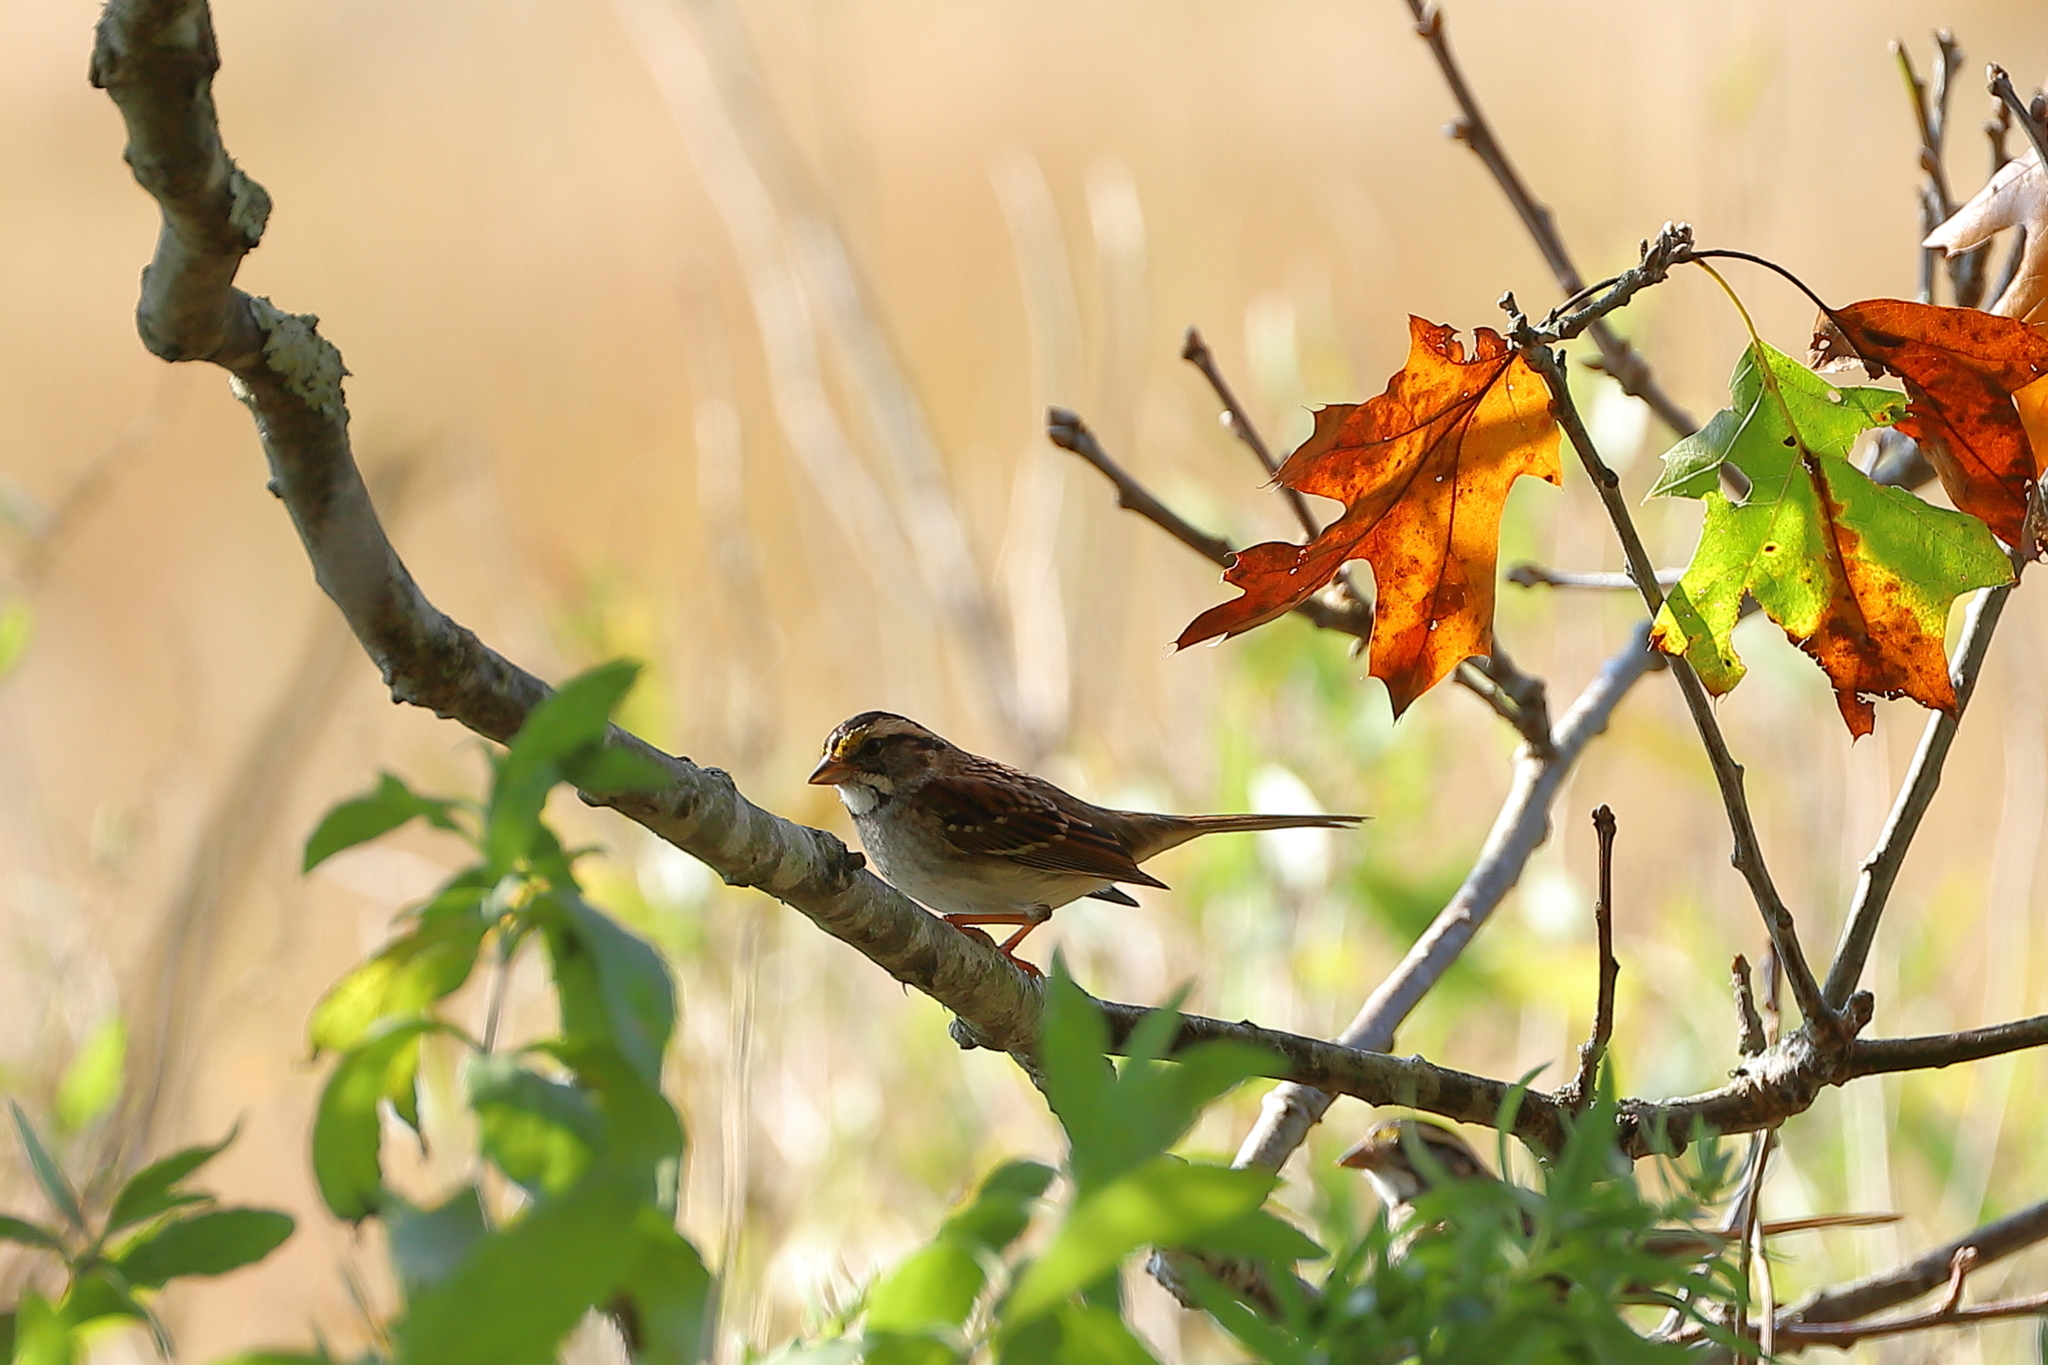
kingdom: Animalia
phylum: Chordata
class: Aves
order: Passeriformes
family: Passerellidae
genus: Zonotrichia
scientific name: Zonotrichia albicollis
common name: White-throated sparrow
